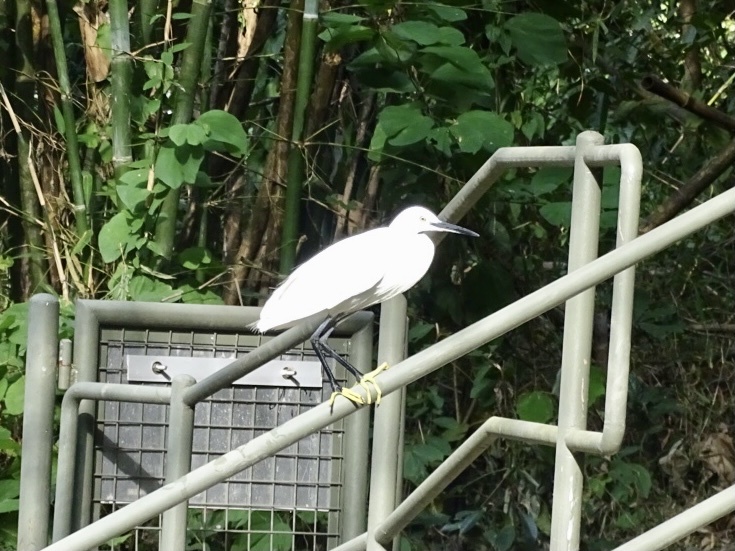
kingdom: Animalia
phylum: Chordata
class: Aves
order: Pelecaniformes
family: Ardeidae
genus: Egretta
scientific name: Egretta garzetta
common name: Little egret
